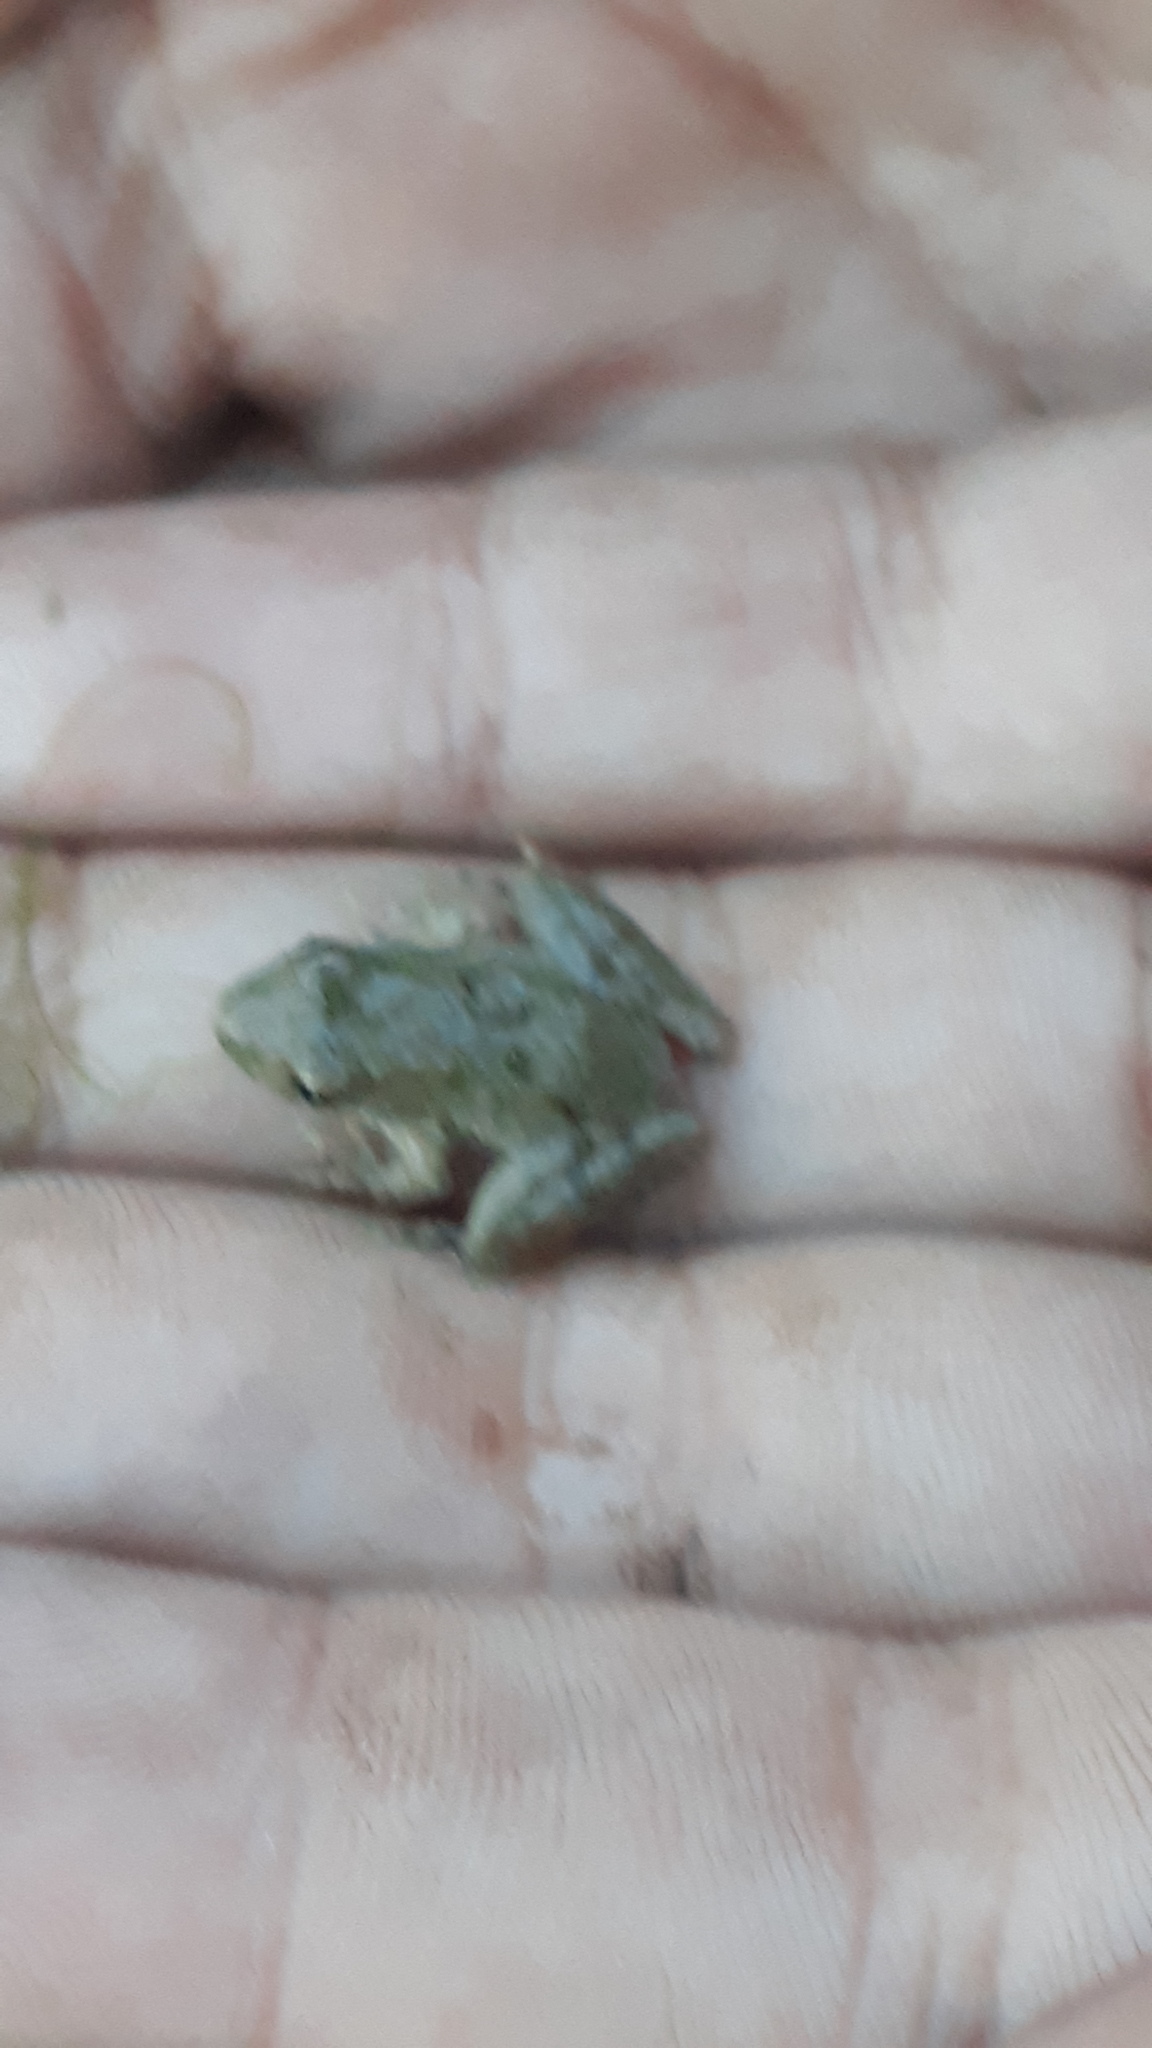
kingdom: Animalia
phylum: Chordata
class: Amphibia
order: Anura
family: Hylidae
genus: Acris
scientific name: Acris blanchardi
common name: Blanchard's cricket frog
